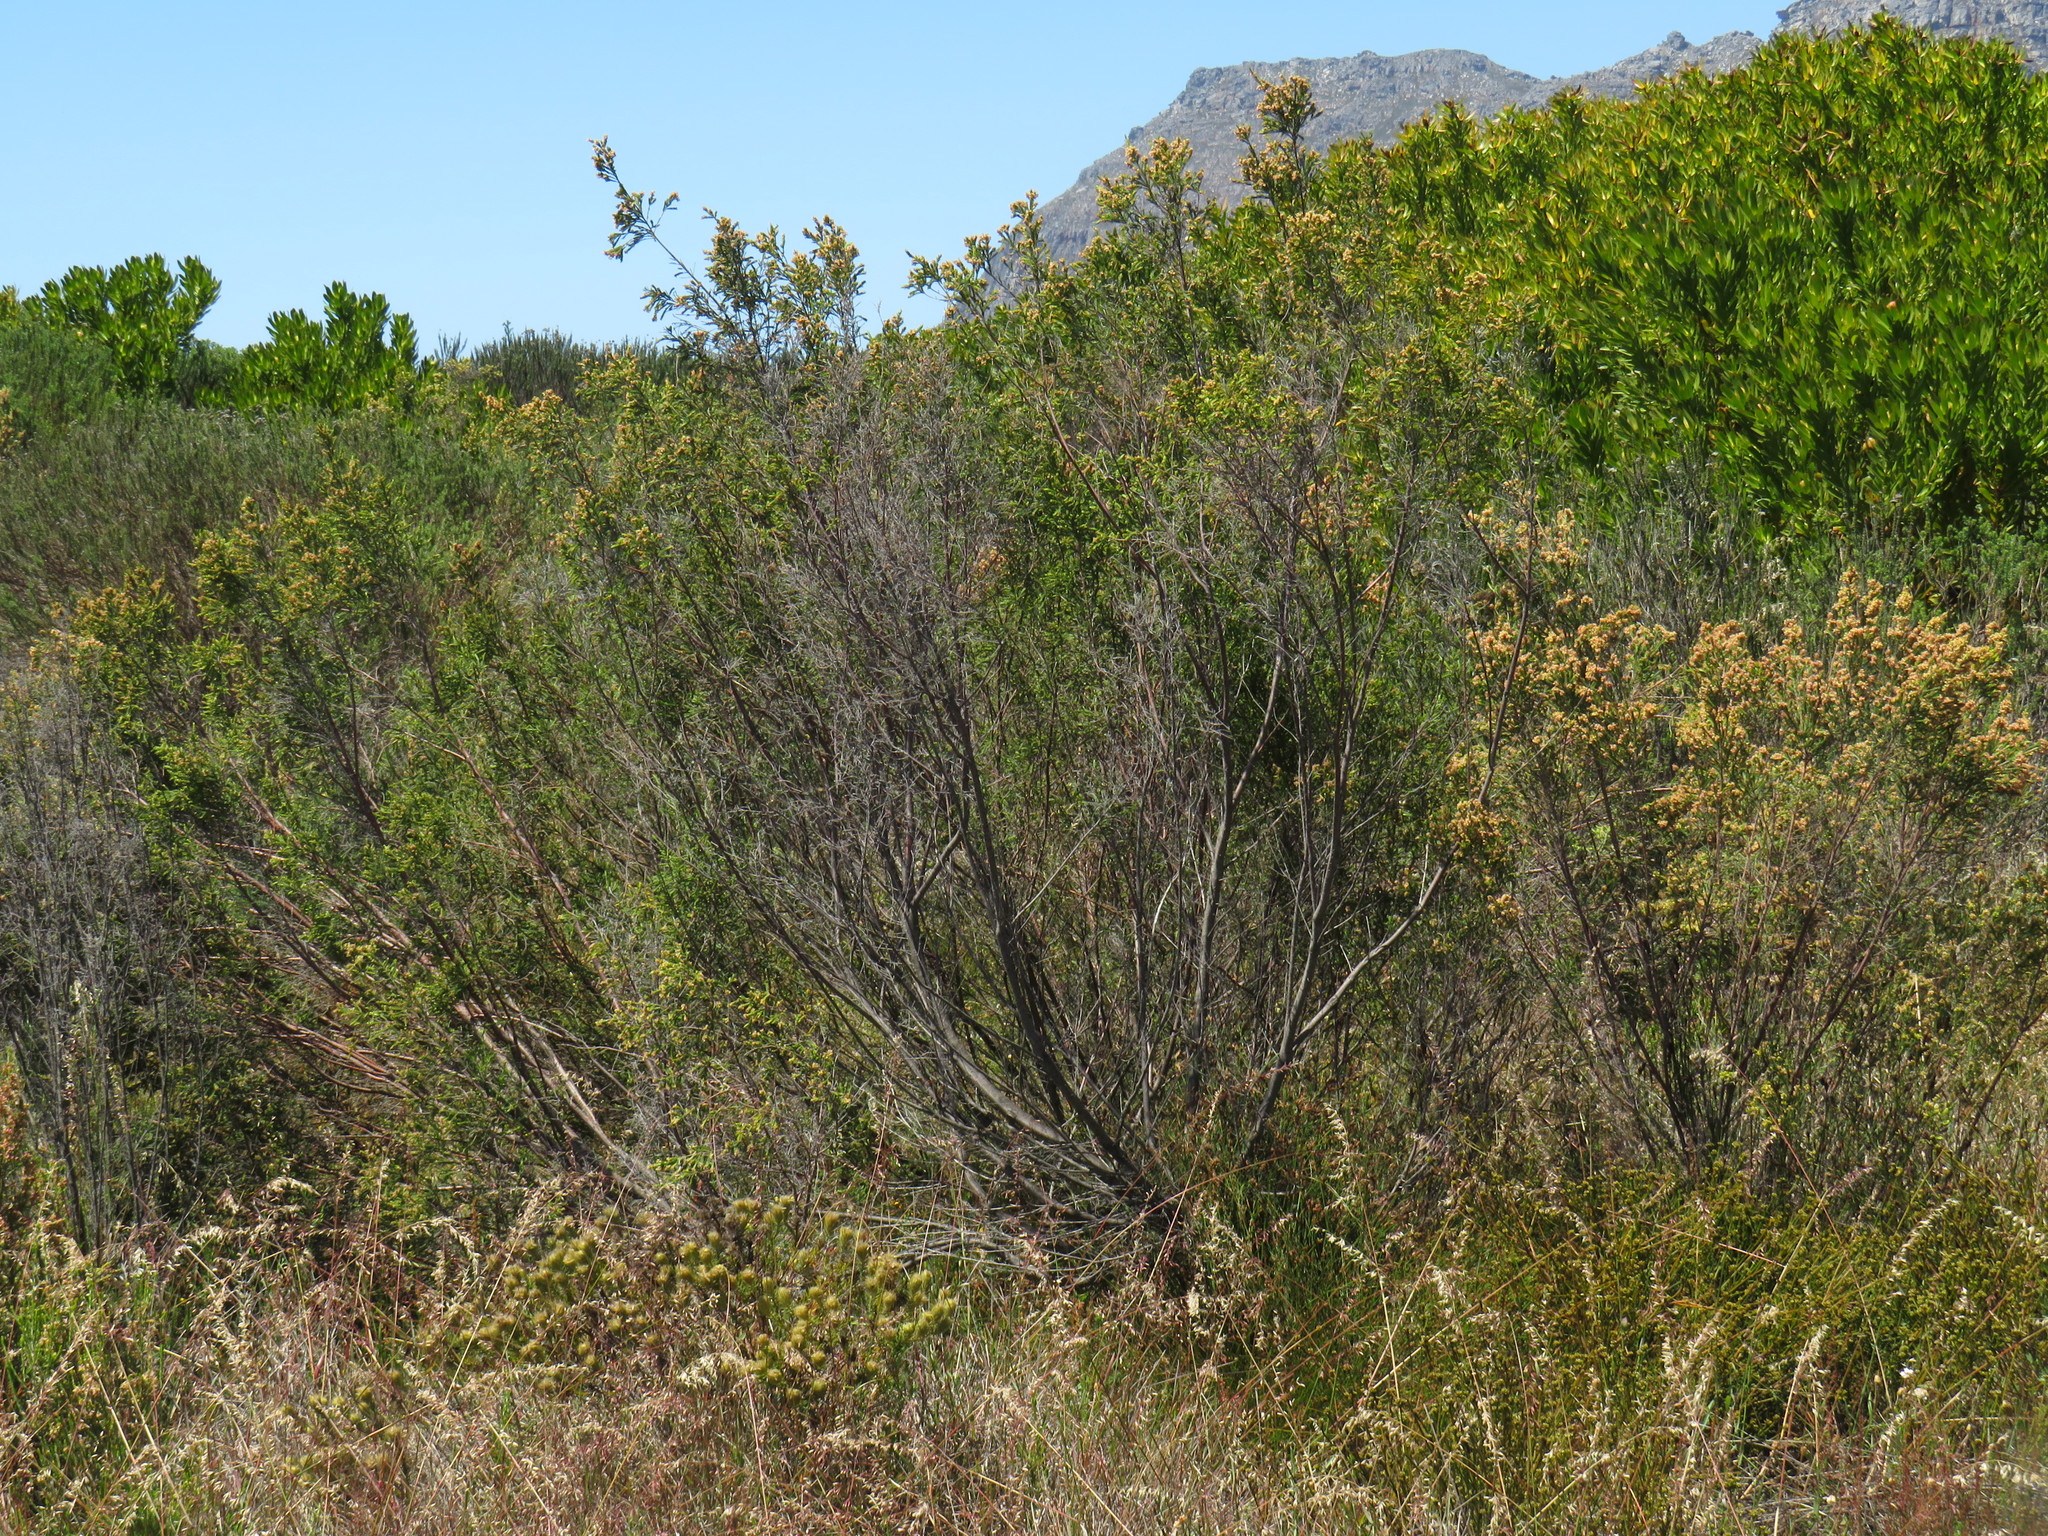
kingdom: Plantae
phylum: Tracheophyta
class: Magnoliopsida
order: Malvales
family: Thymelaeaceae
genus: Passerina
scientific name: Passerina corymbosa
